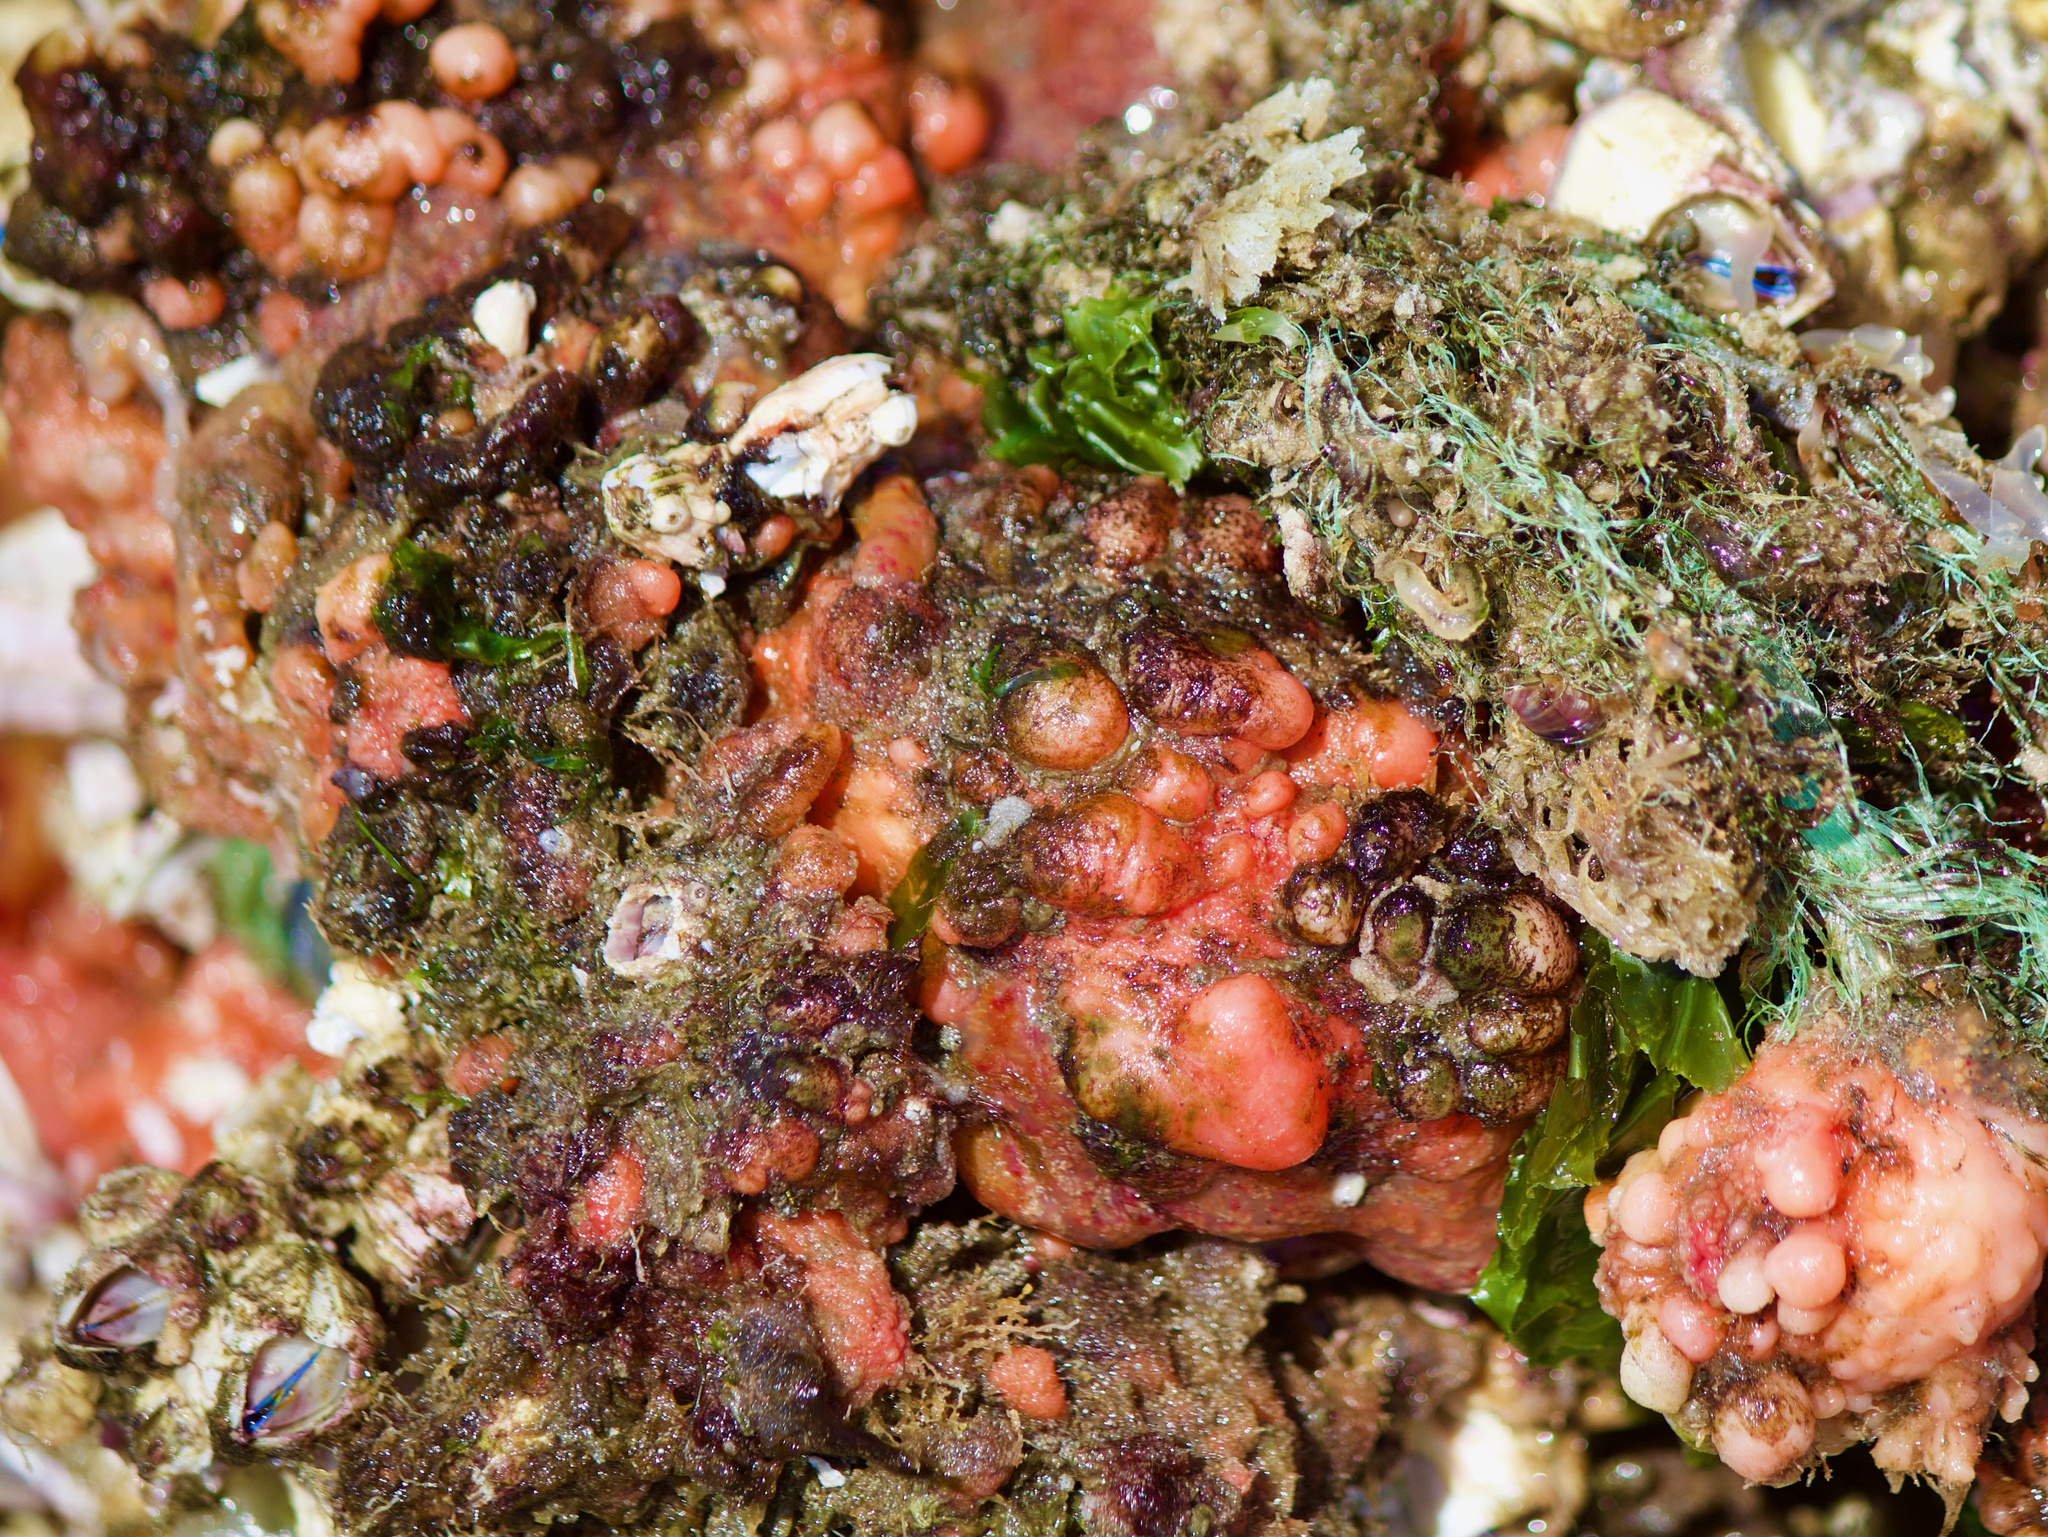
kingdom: Animalia
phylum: Chordata
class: Ascidiacea
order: Stolidobranchia
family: Pyuridae
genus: Pyura
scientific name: Pyura chilensis
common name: Red sea squirt
